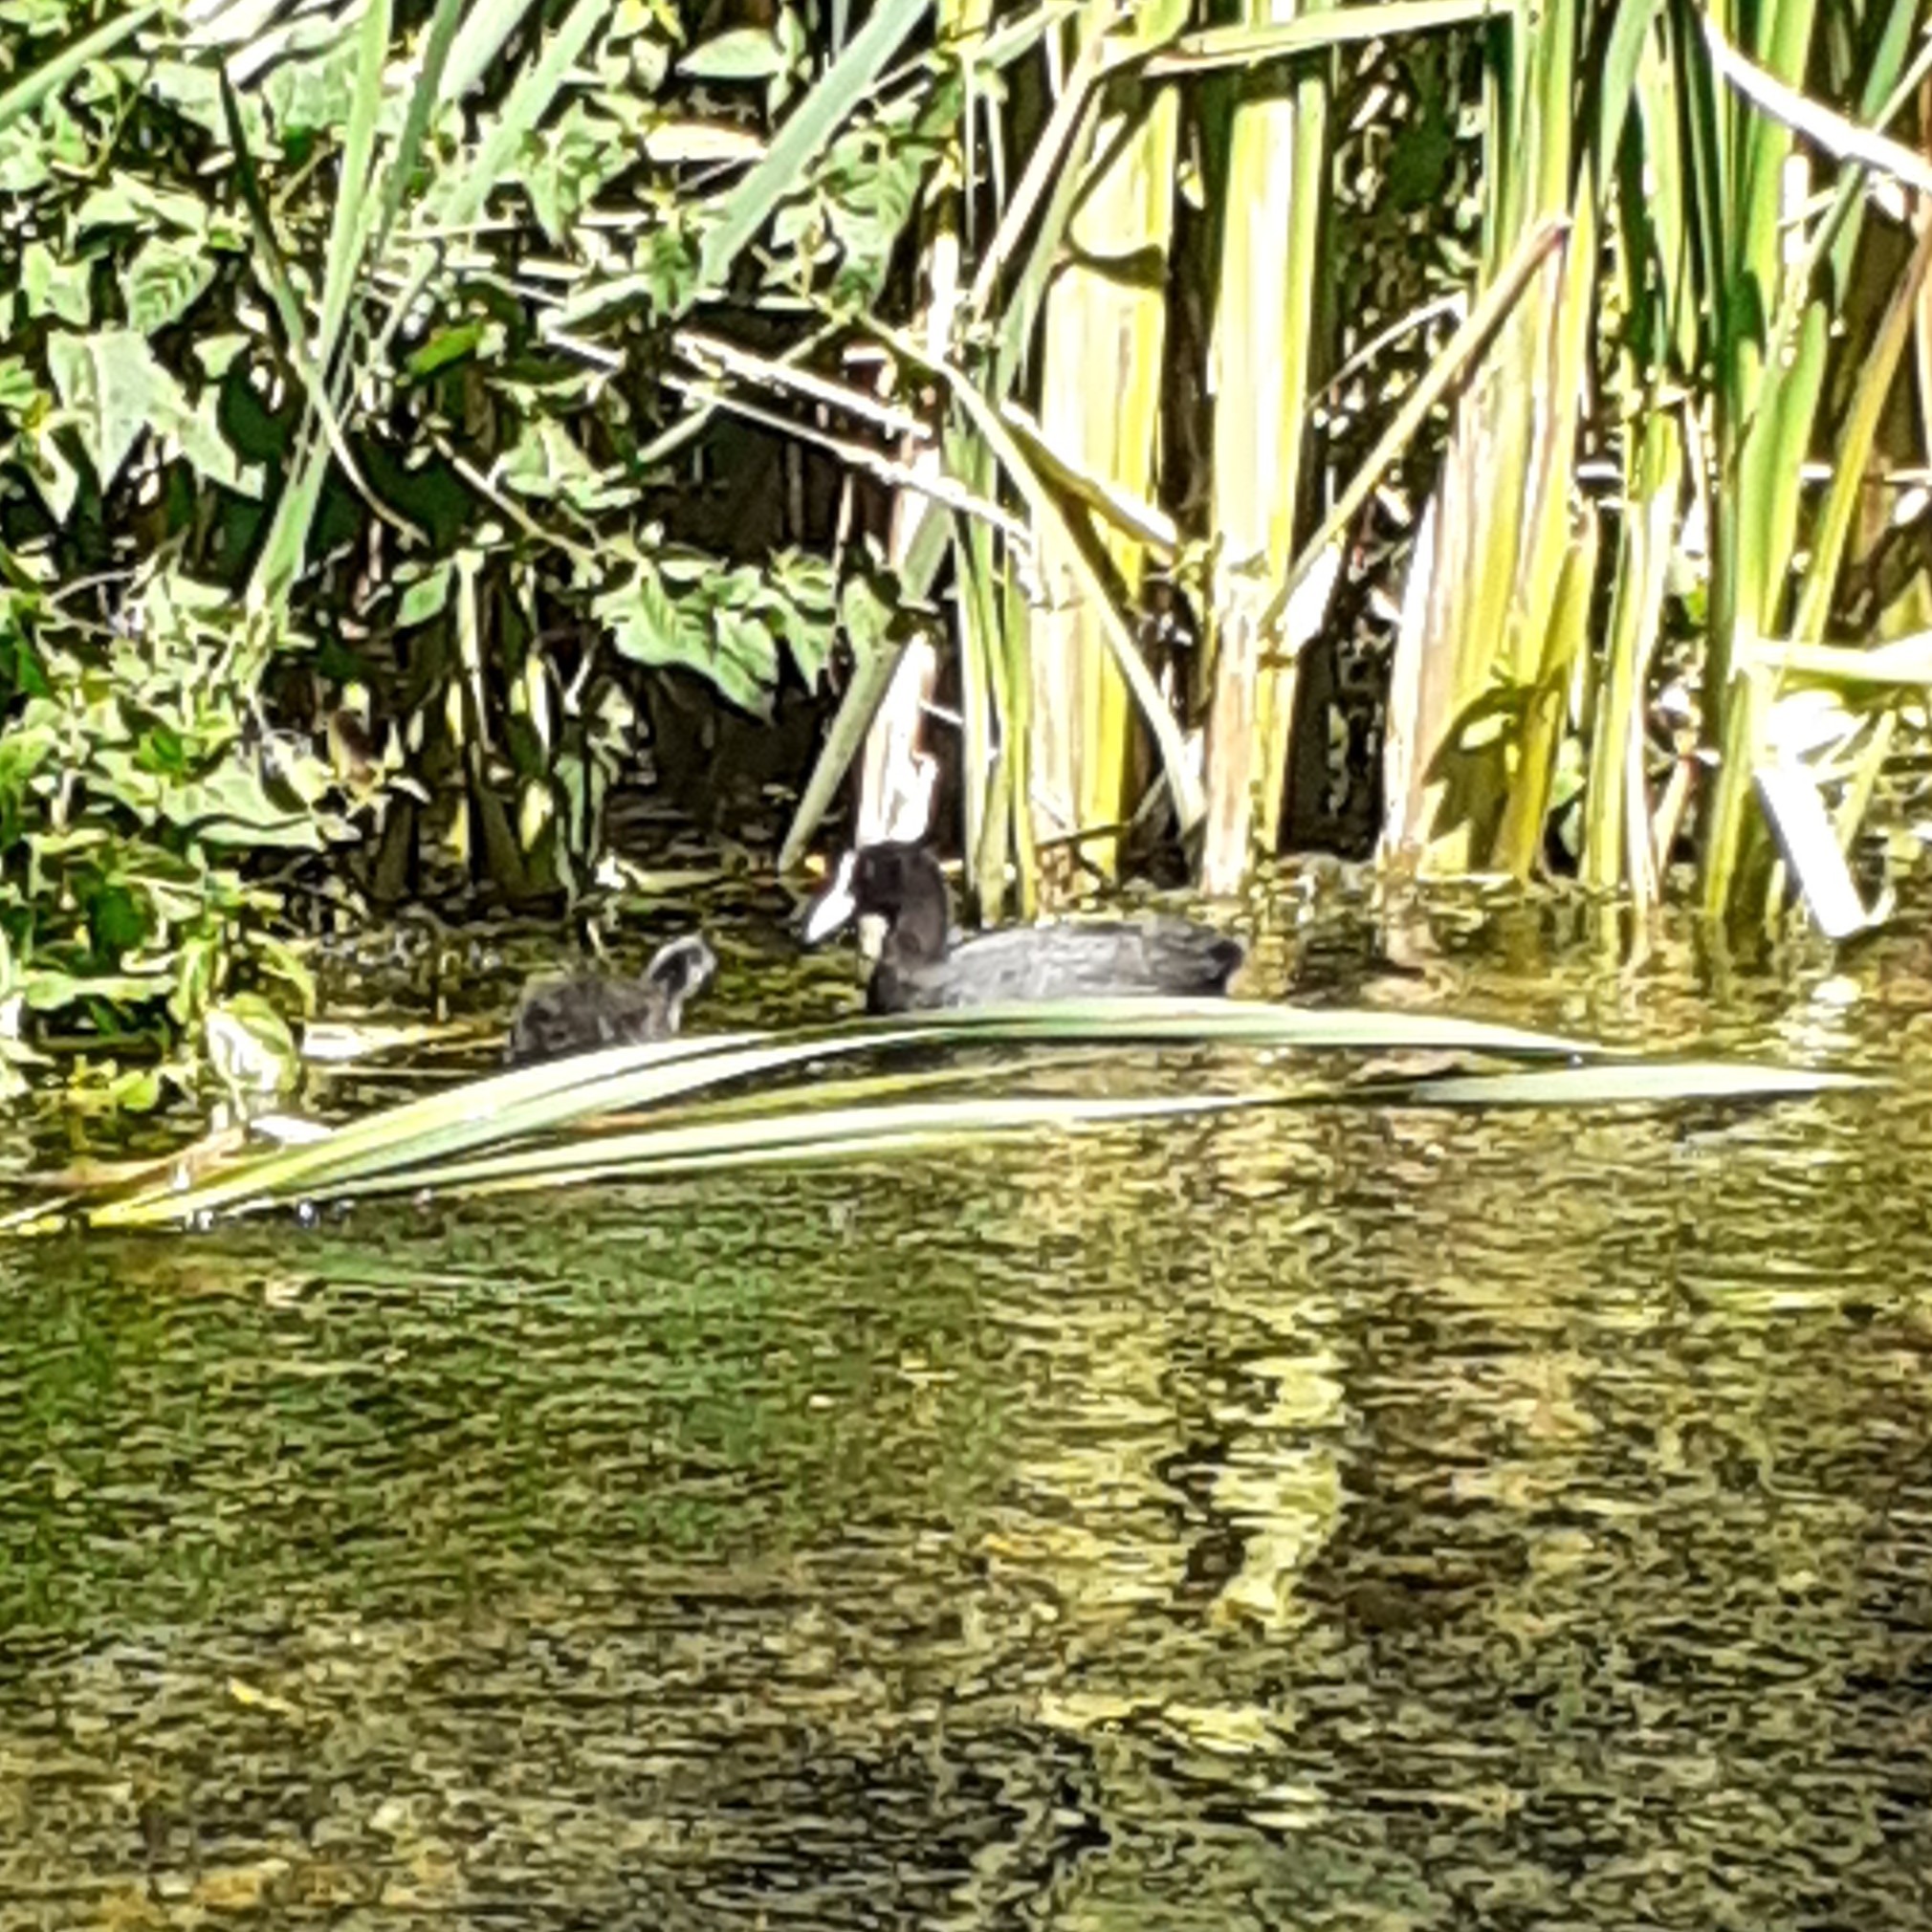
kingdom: Animalia
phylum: Chordata
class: Aves
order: Gruiformes
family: Rallidae
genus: Fulica
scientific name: Fulica atra
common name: Eurasian coot
